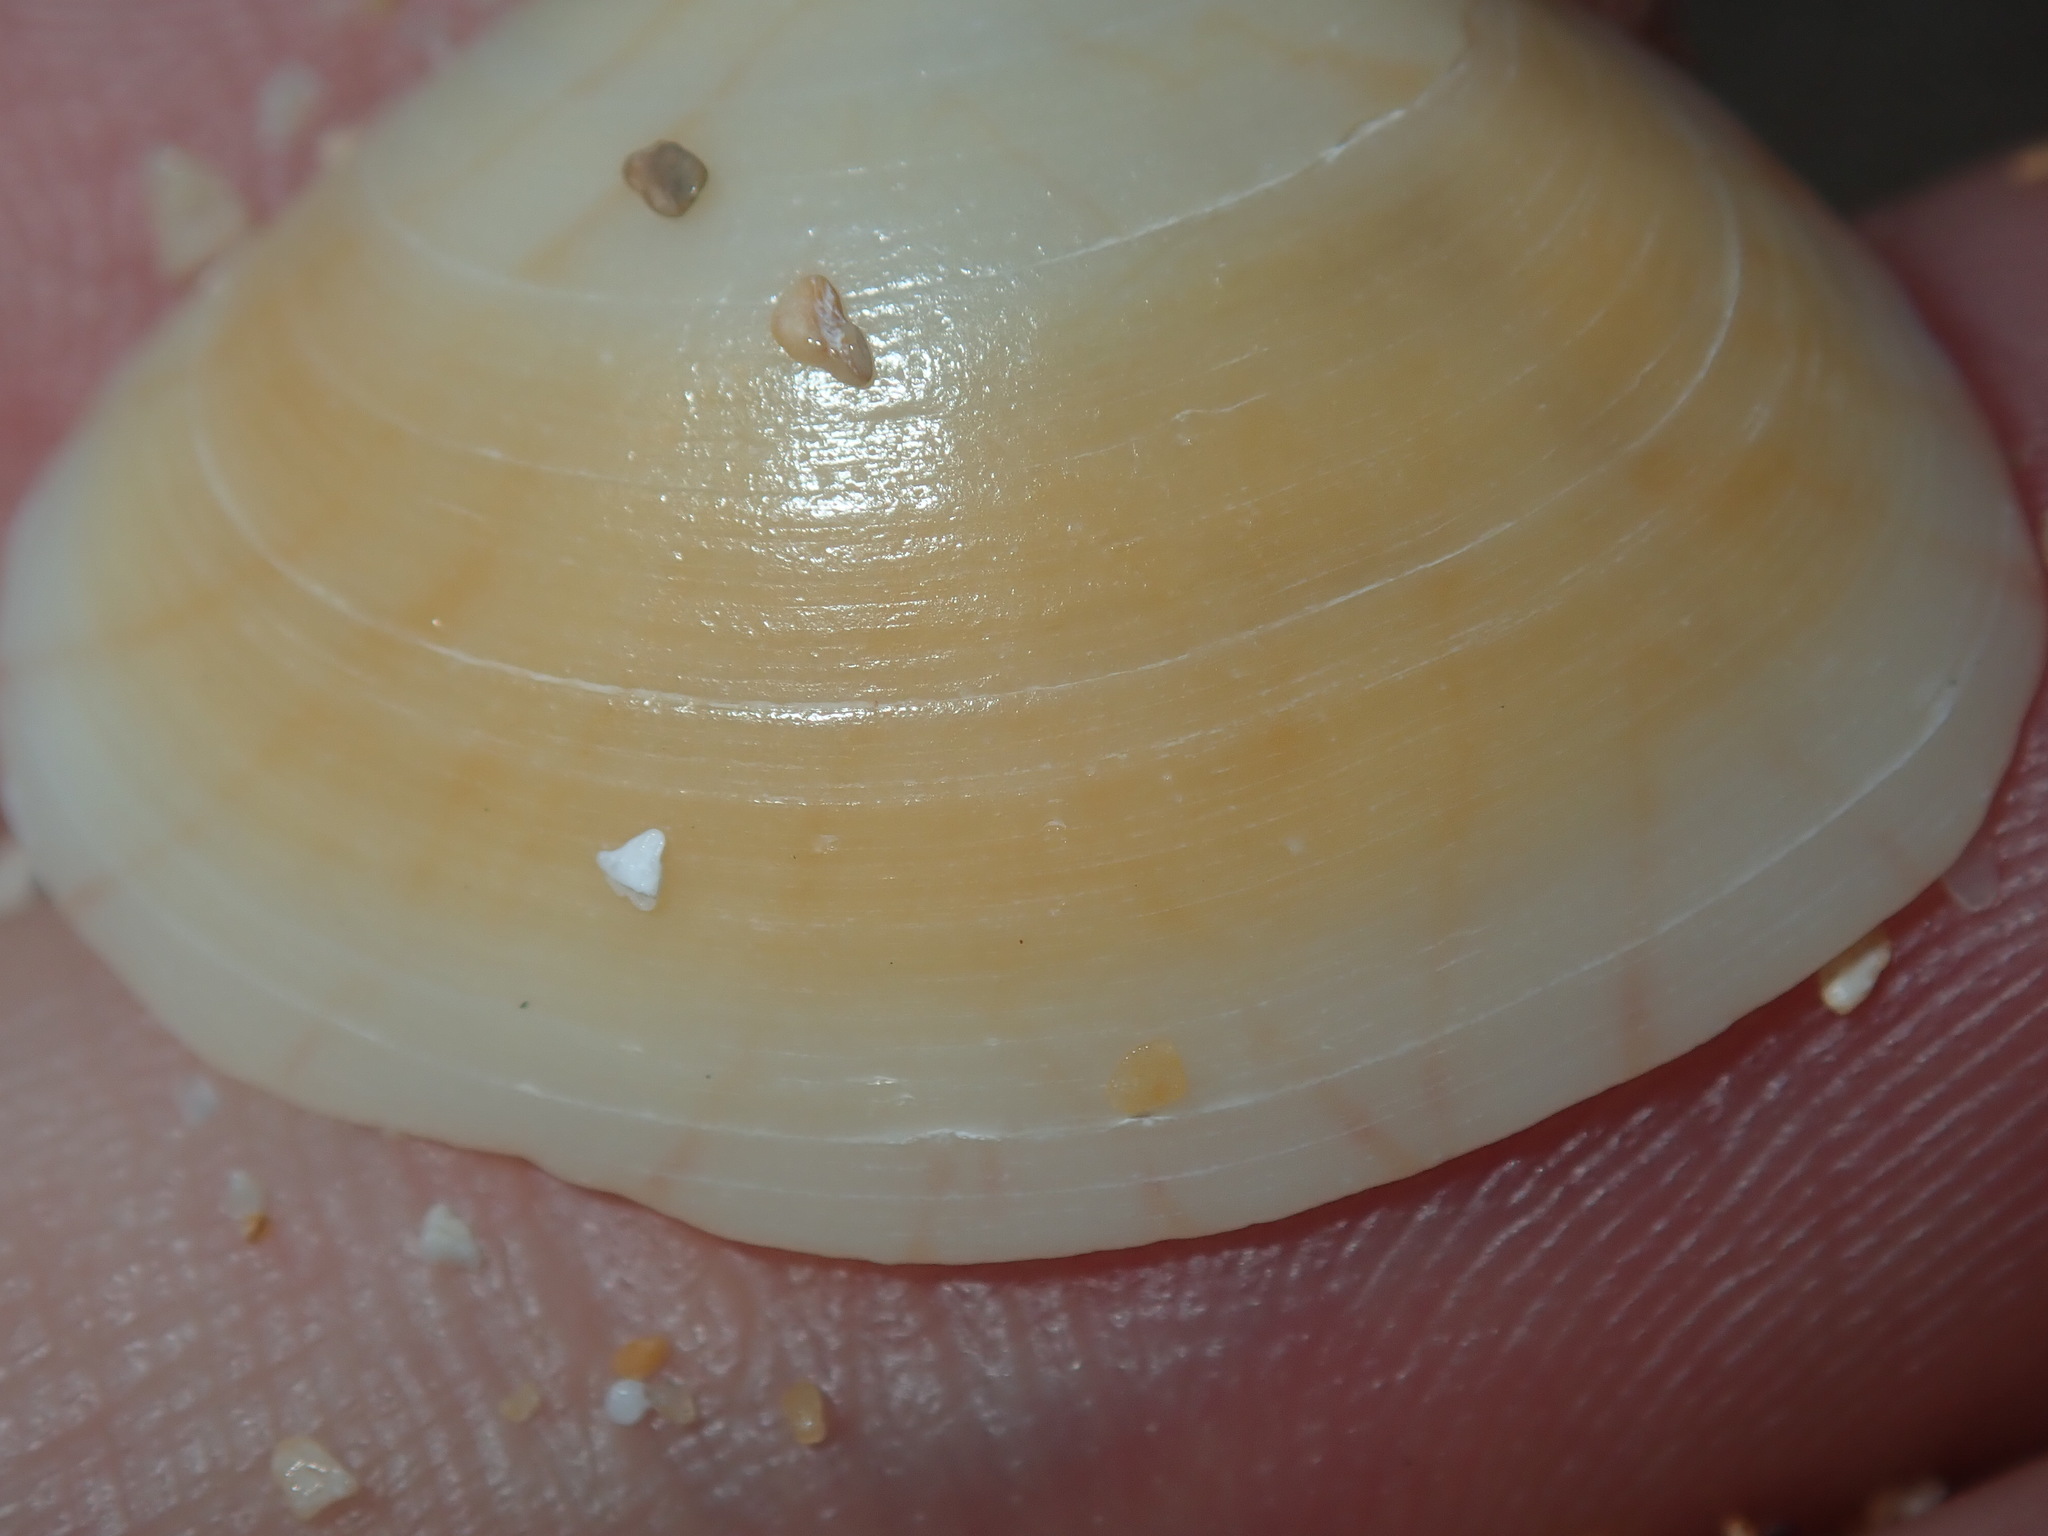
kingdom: Animalia
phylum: Mollusca
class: Bivalvia
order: Venerida
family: Veneridae
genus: Gomphina
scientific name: Gomphina undulosa
